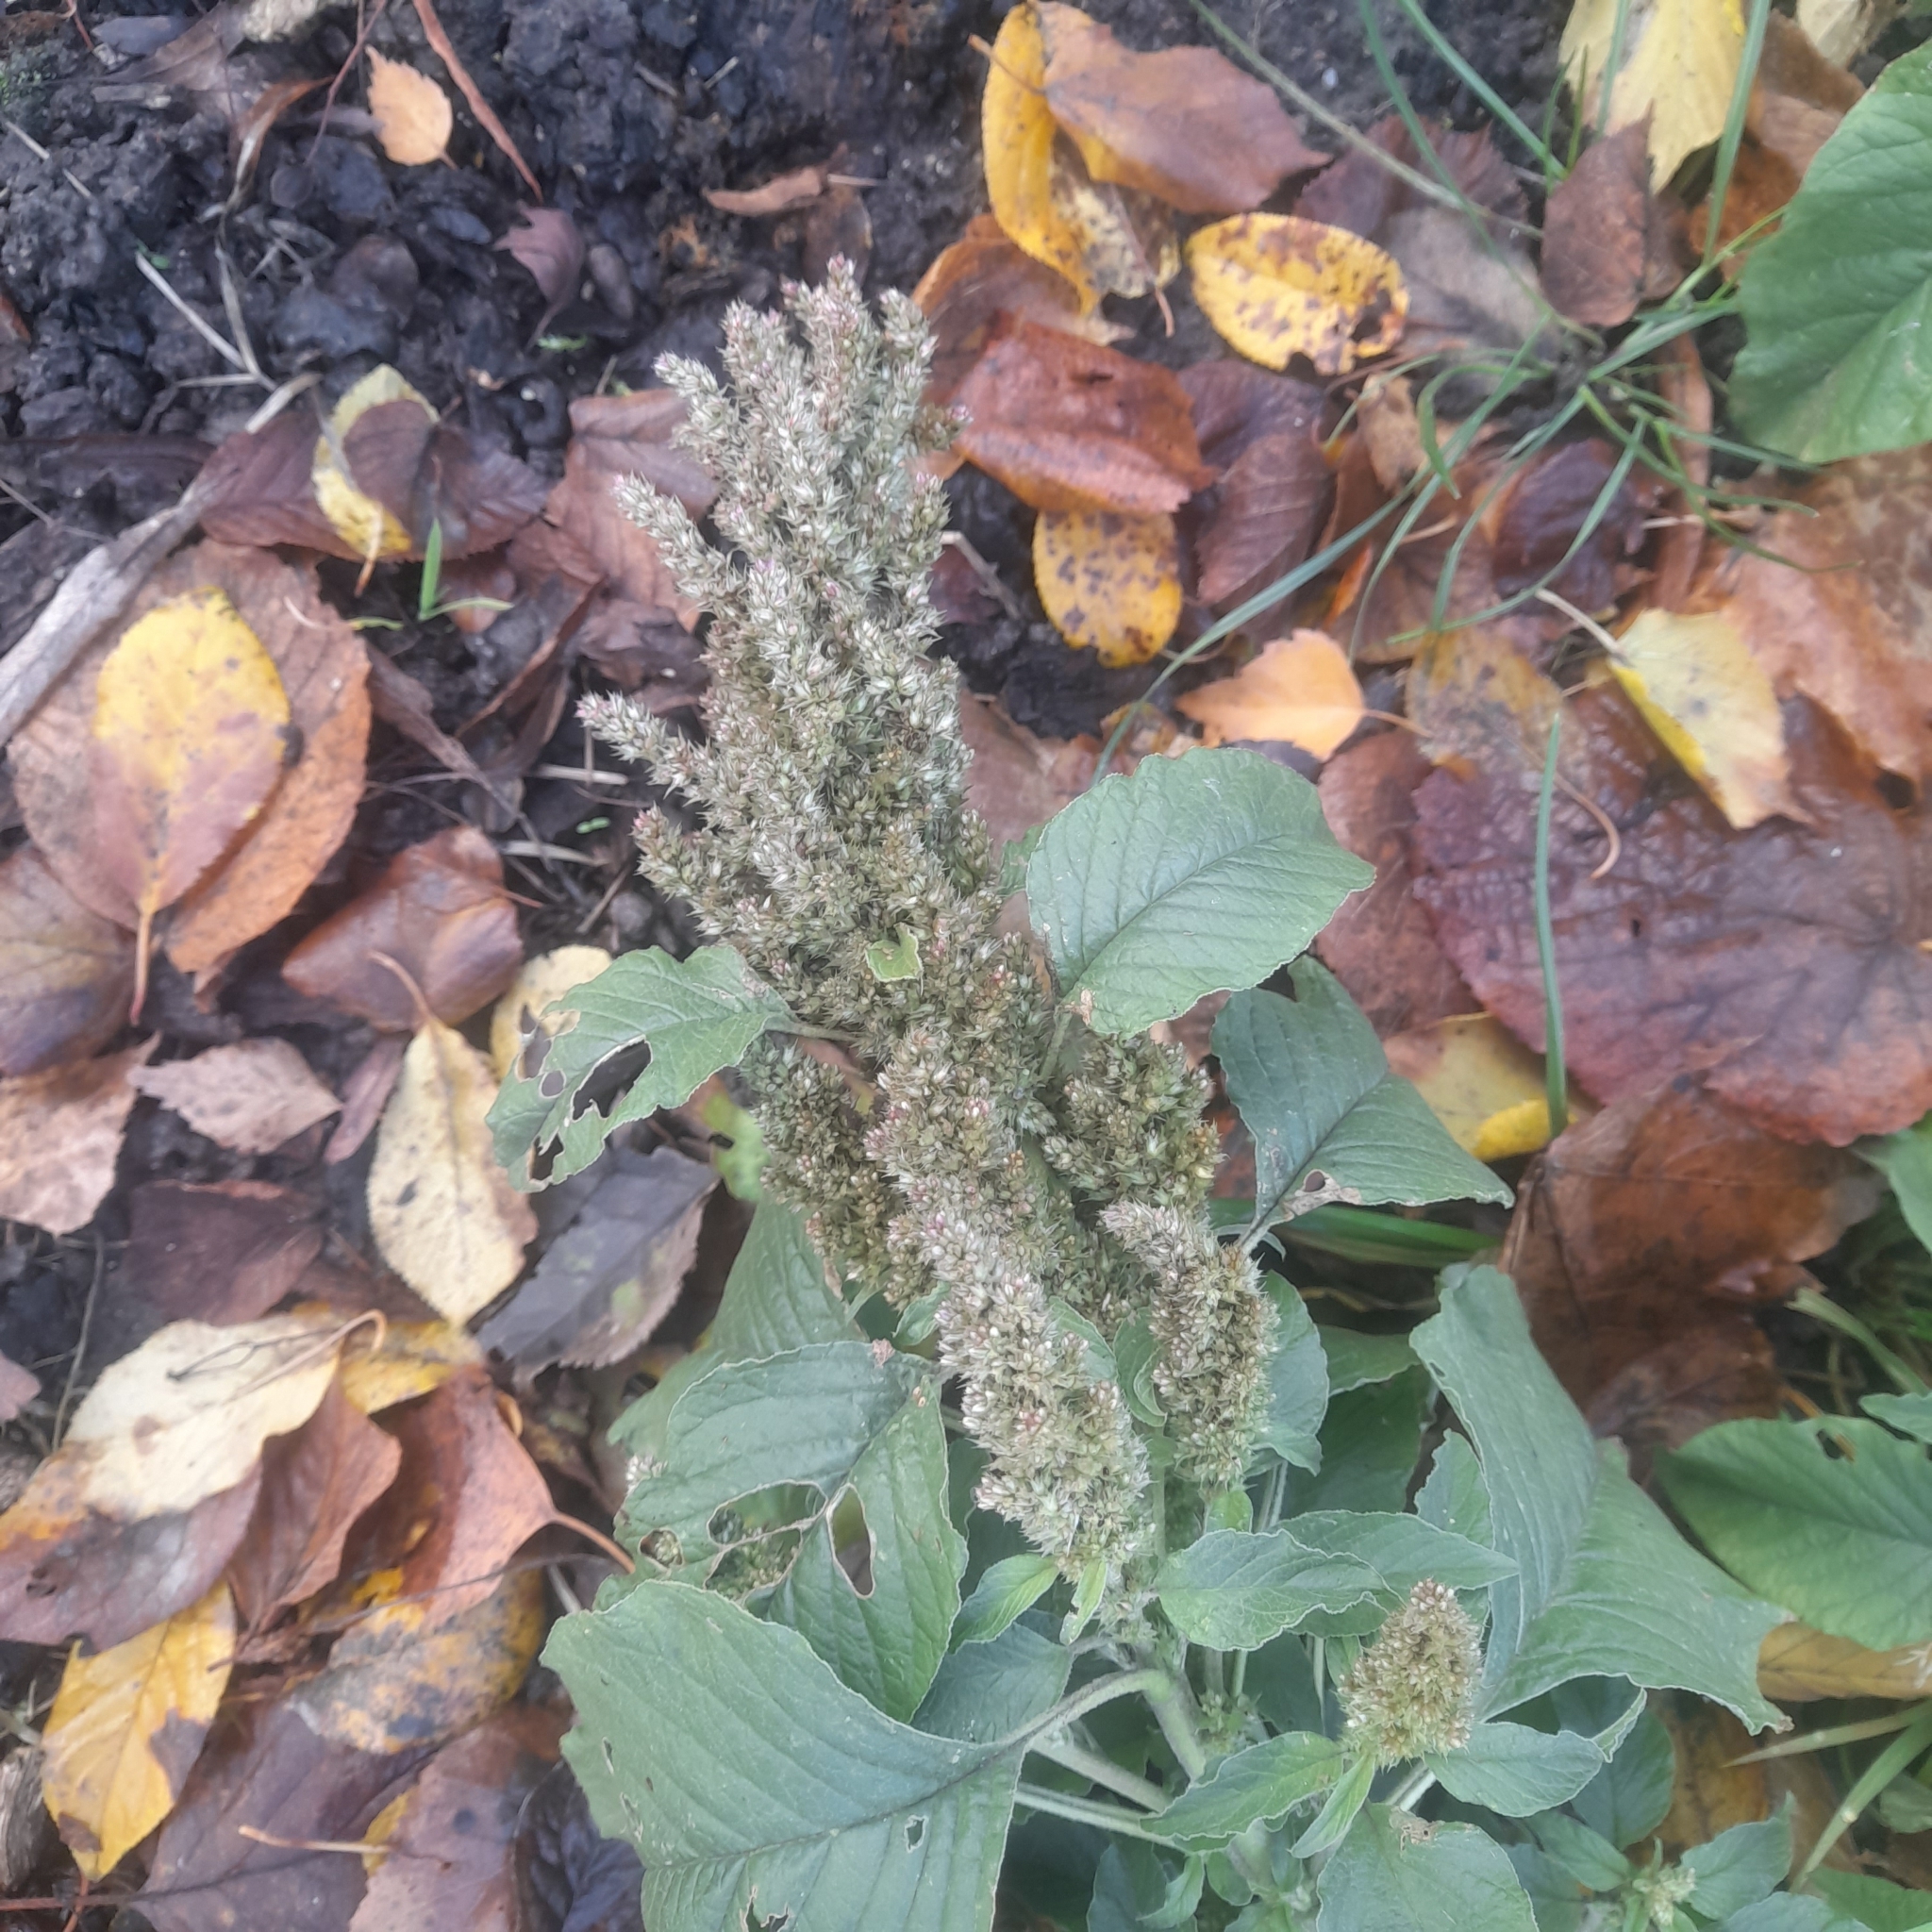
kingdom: Plantae
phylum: Tracheophyta
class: Magnoliopsida
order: Caryophyllales
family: Amaranthaceae
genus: Amaranthus
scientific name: Amaranthus retroflexus
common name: Redroot amaranth
